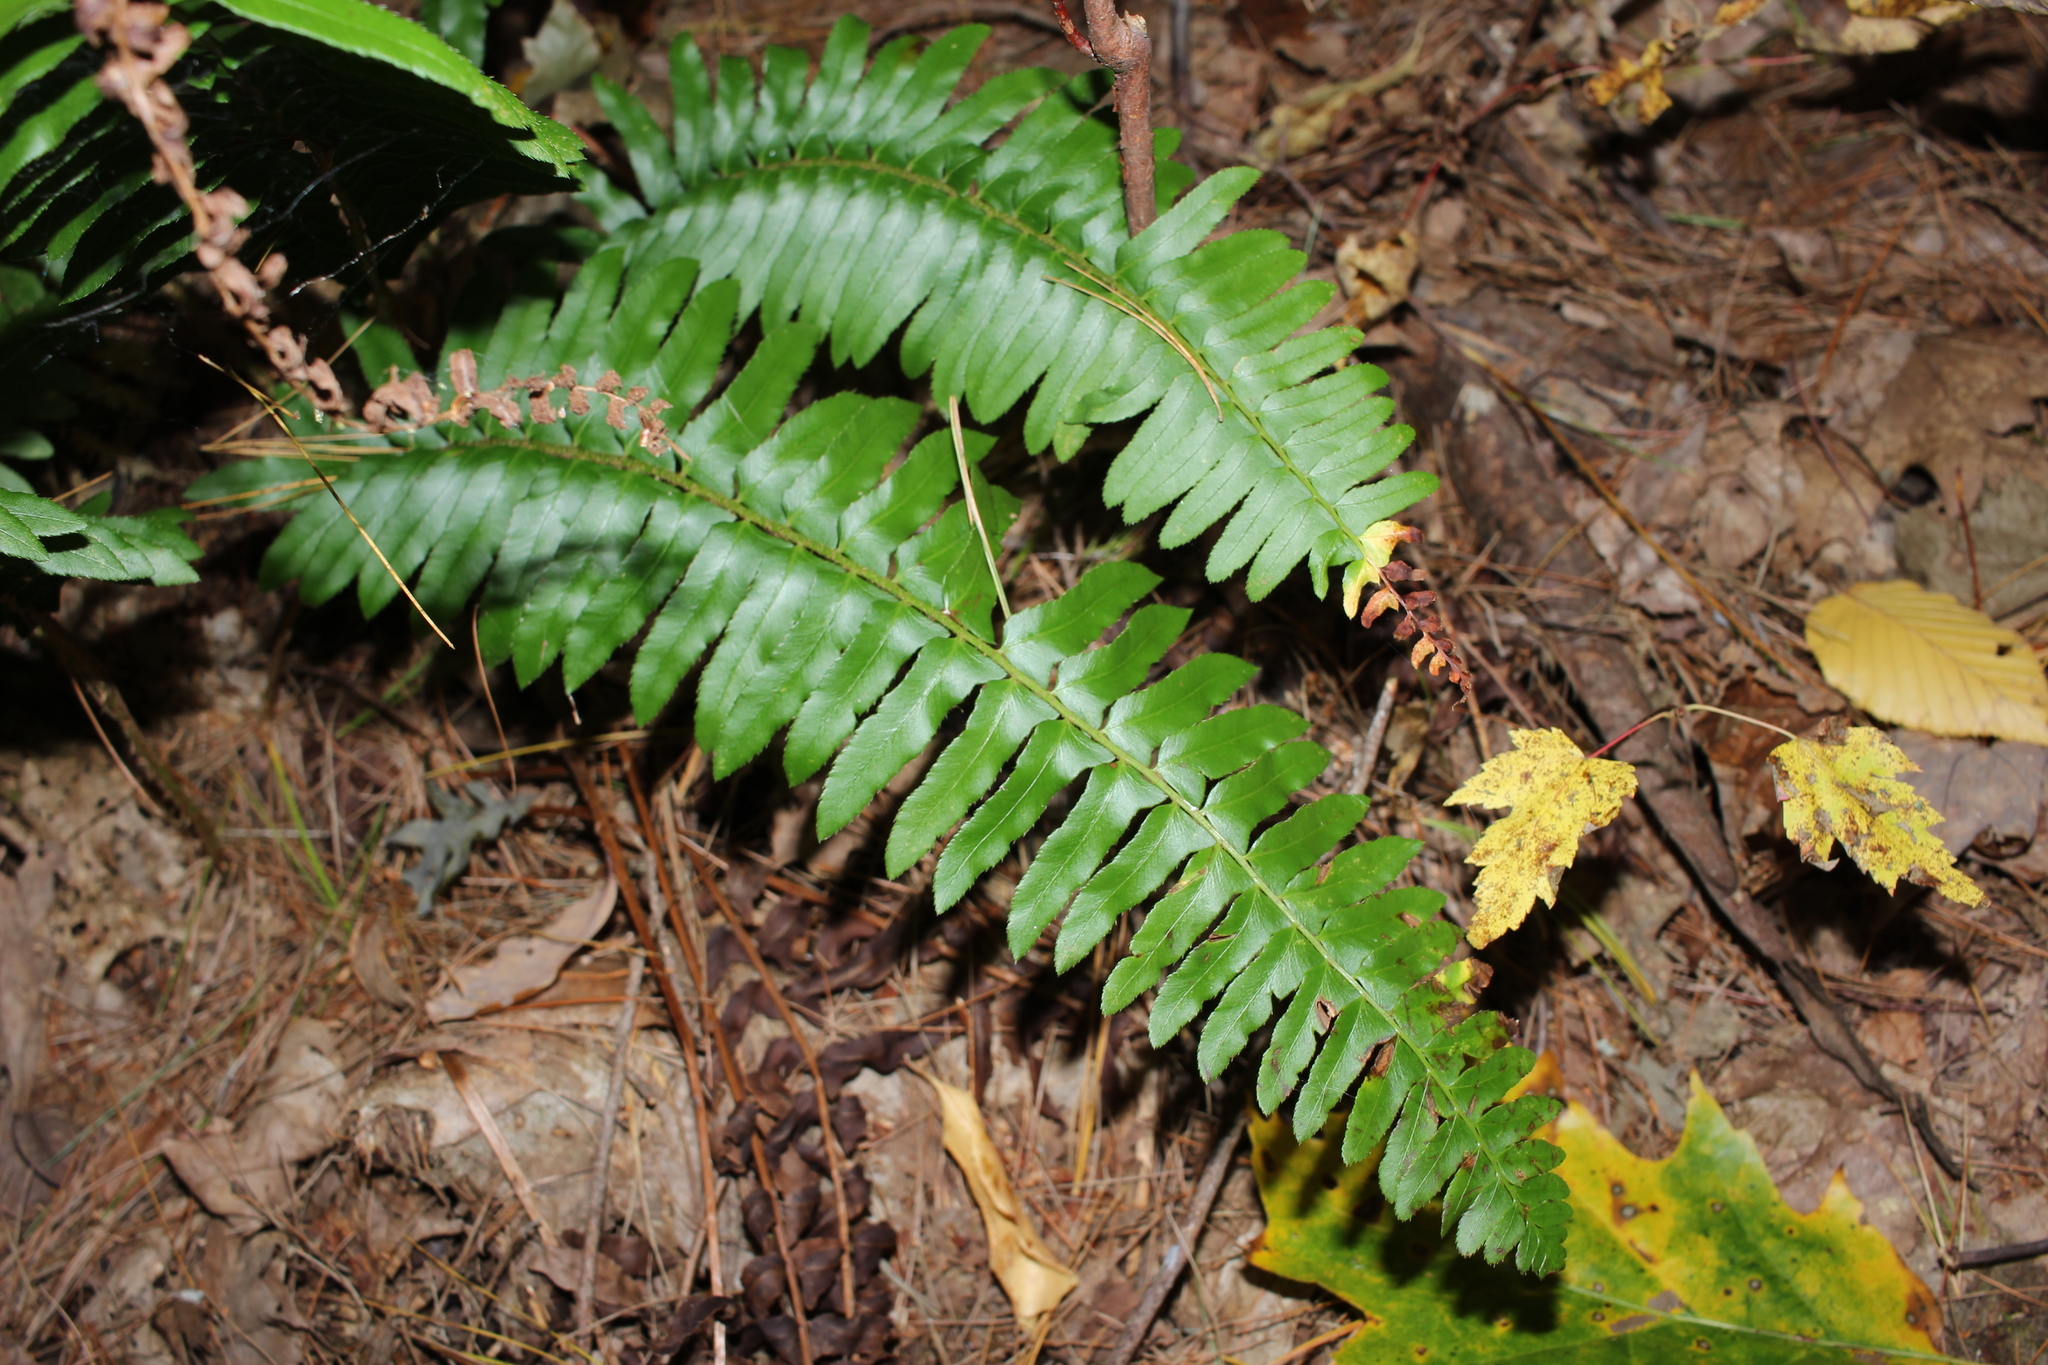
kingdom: Plantae
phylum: Tracheophyta
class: Polypodiopsida
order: Polypodiales
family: Dryopteridaceae
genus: Polystichum
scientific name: Polystichum acrostichoides
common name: Christmas fern
